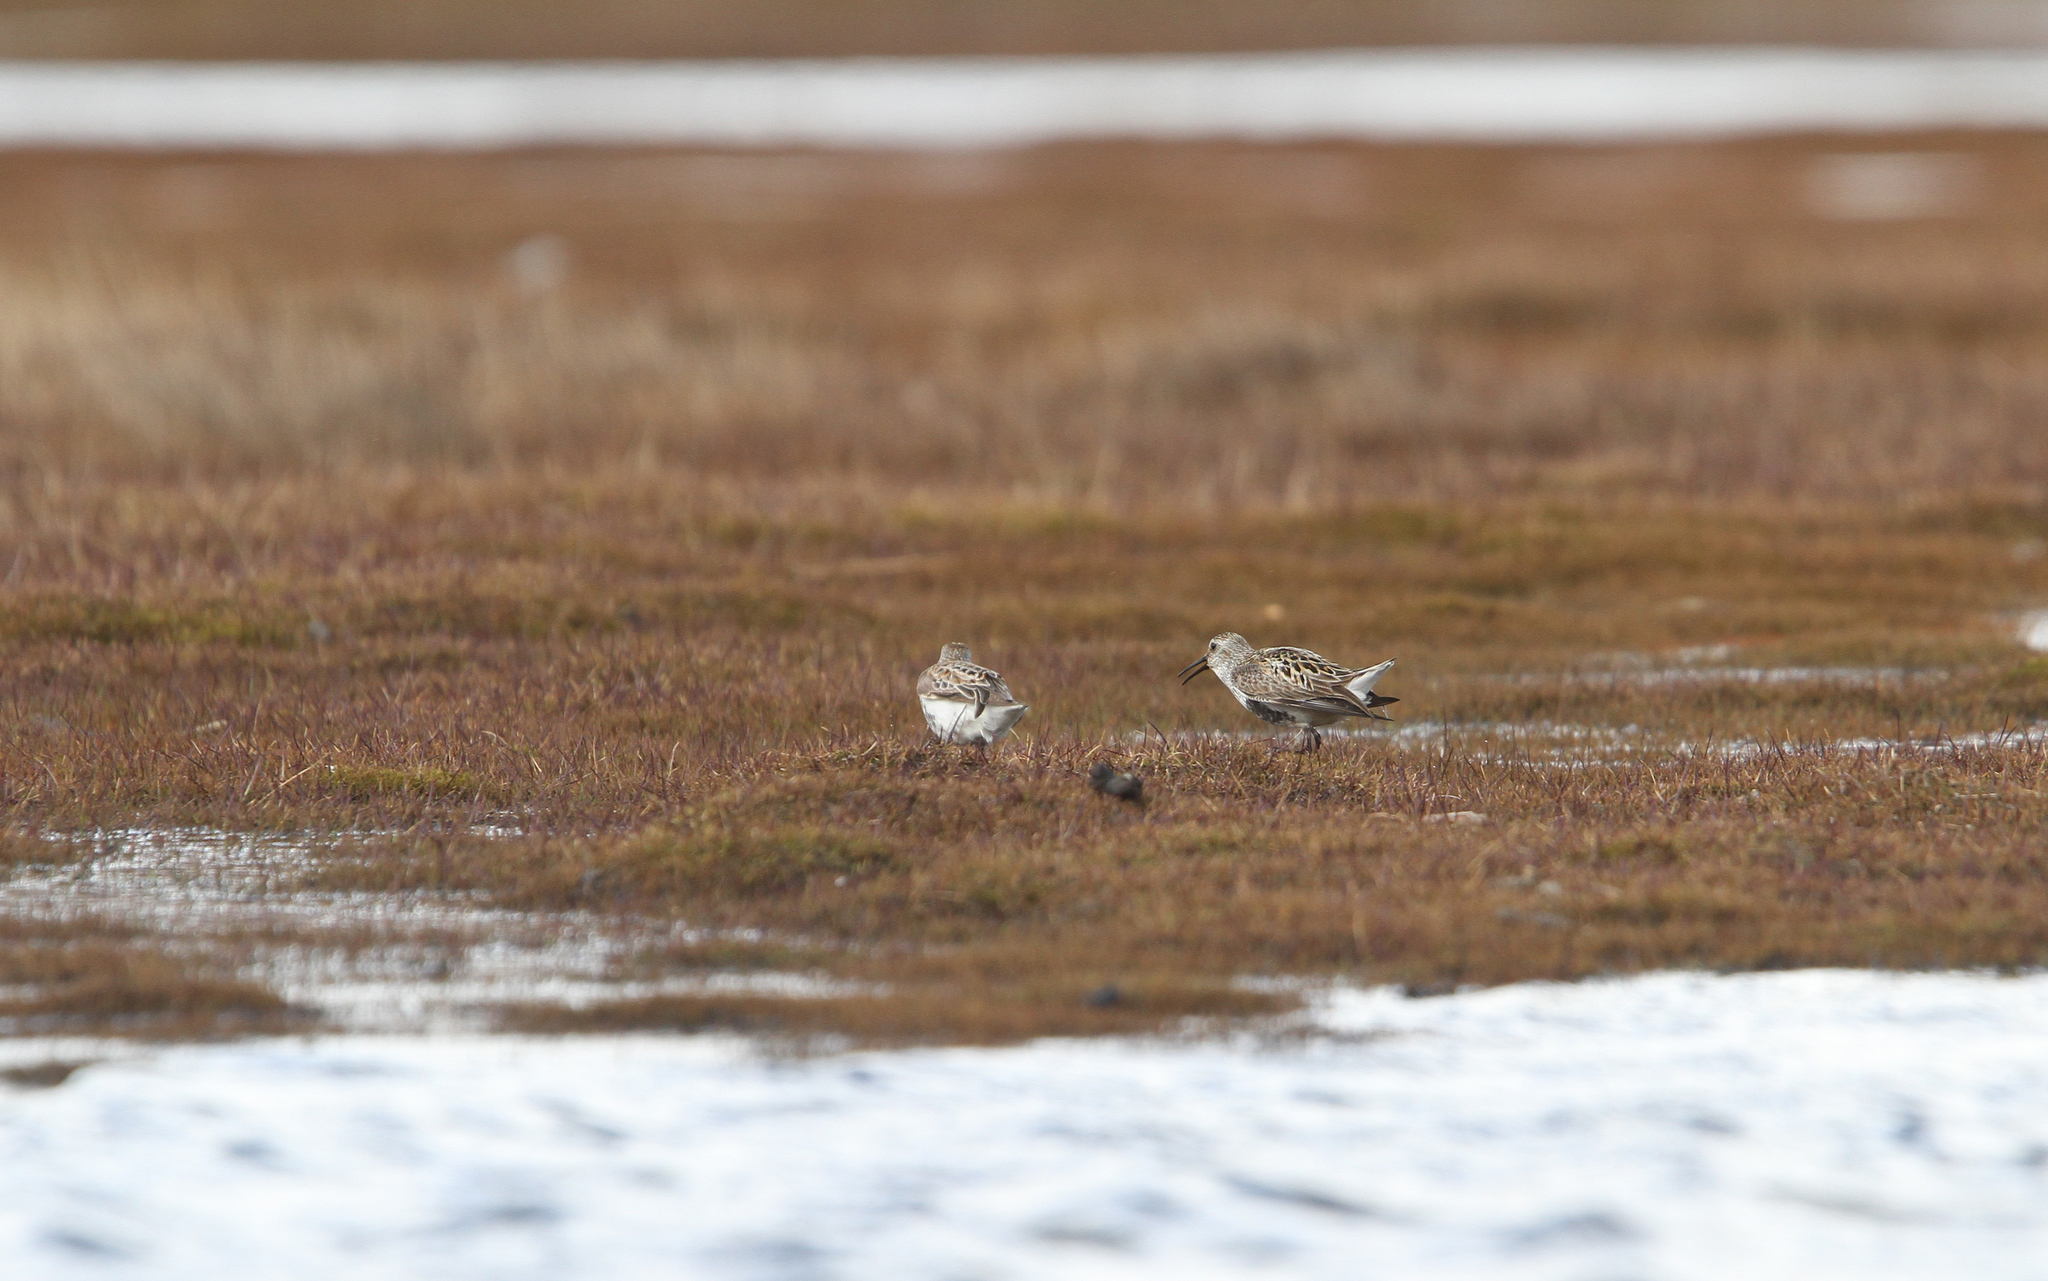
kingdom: Animalia
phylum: Chordata
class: Aves
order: Charadriiformes
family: Scolopacidae
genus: Calidris
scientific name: Calidris alpina
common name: Dunlin
